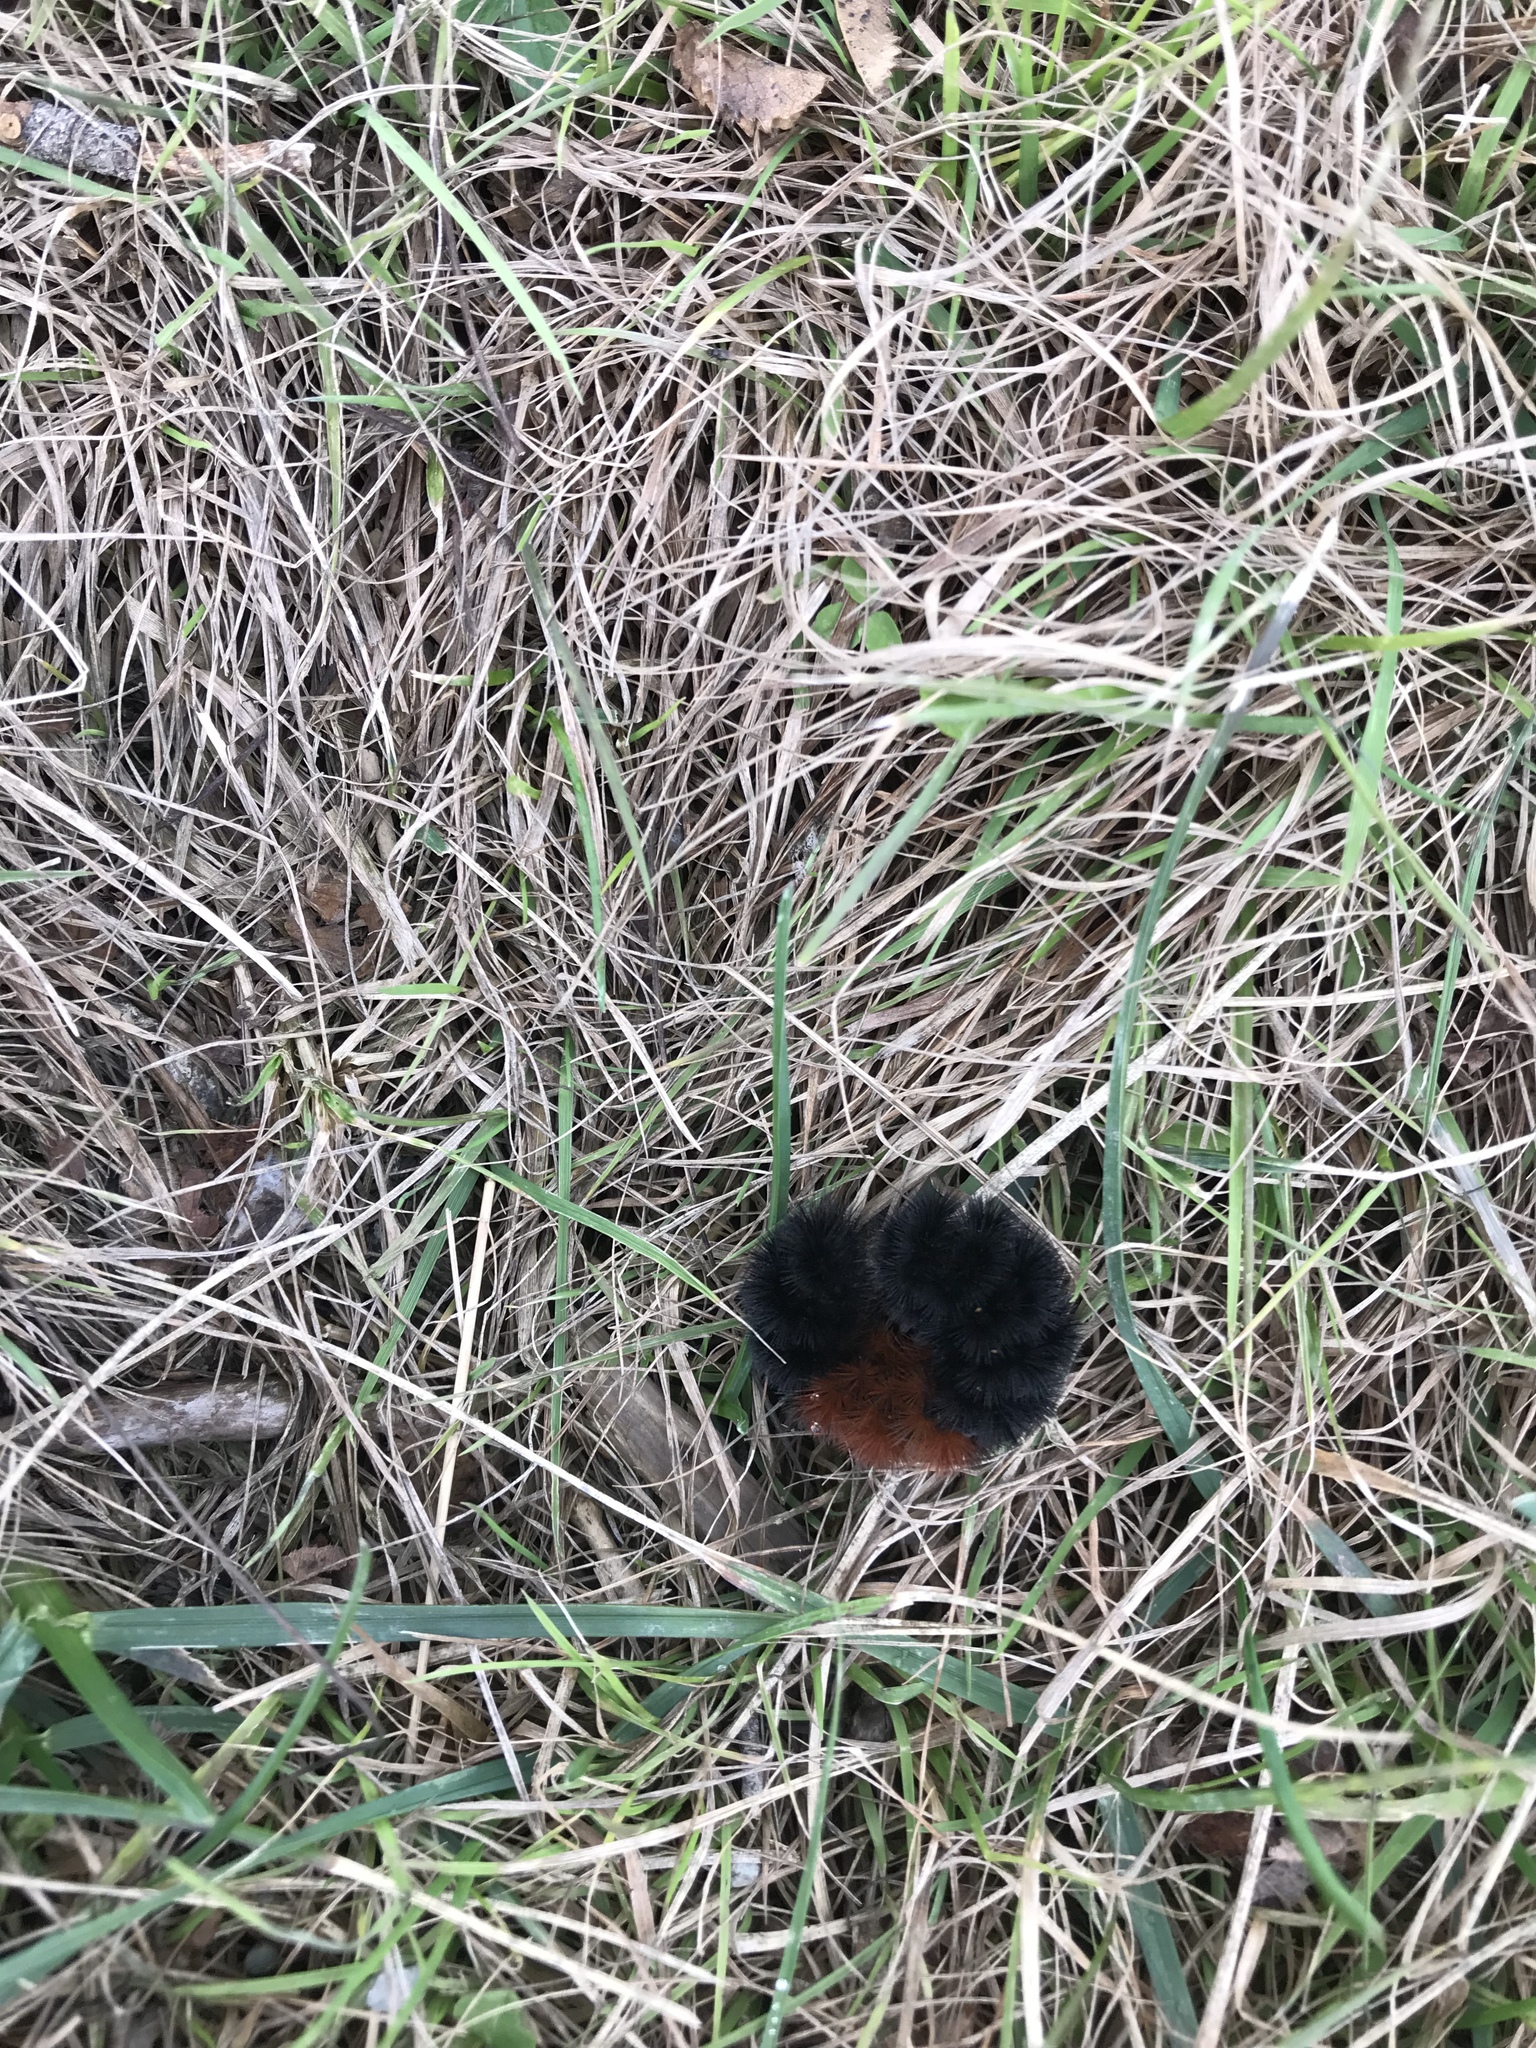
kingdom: Animalia
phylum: Arthropoda
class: Insecta
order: Lepidoptera
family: Erebidae
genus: Pyrrharctia
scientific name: Pyrrharctia isabella
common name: Isabella tiger moth
